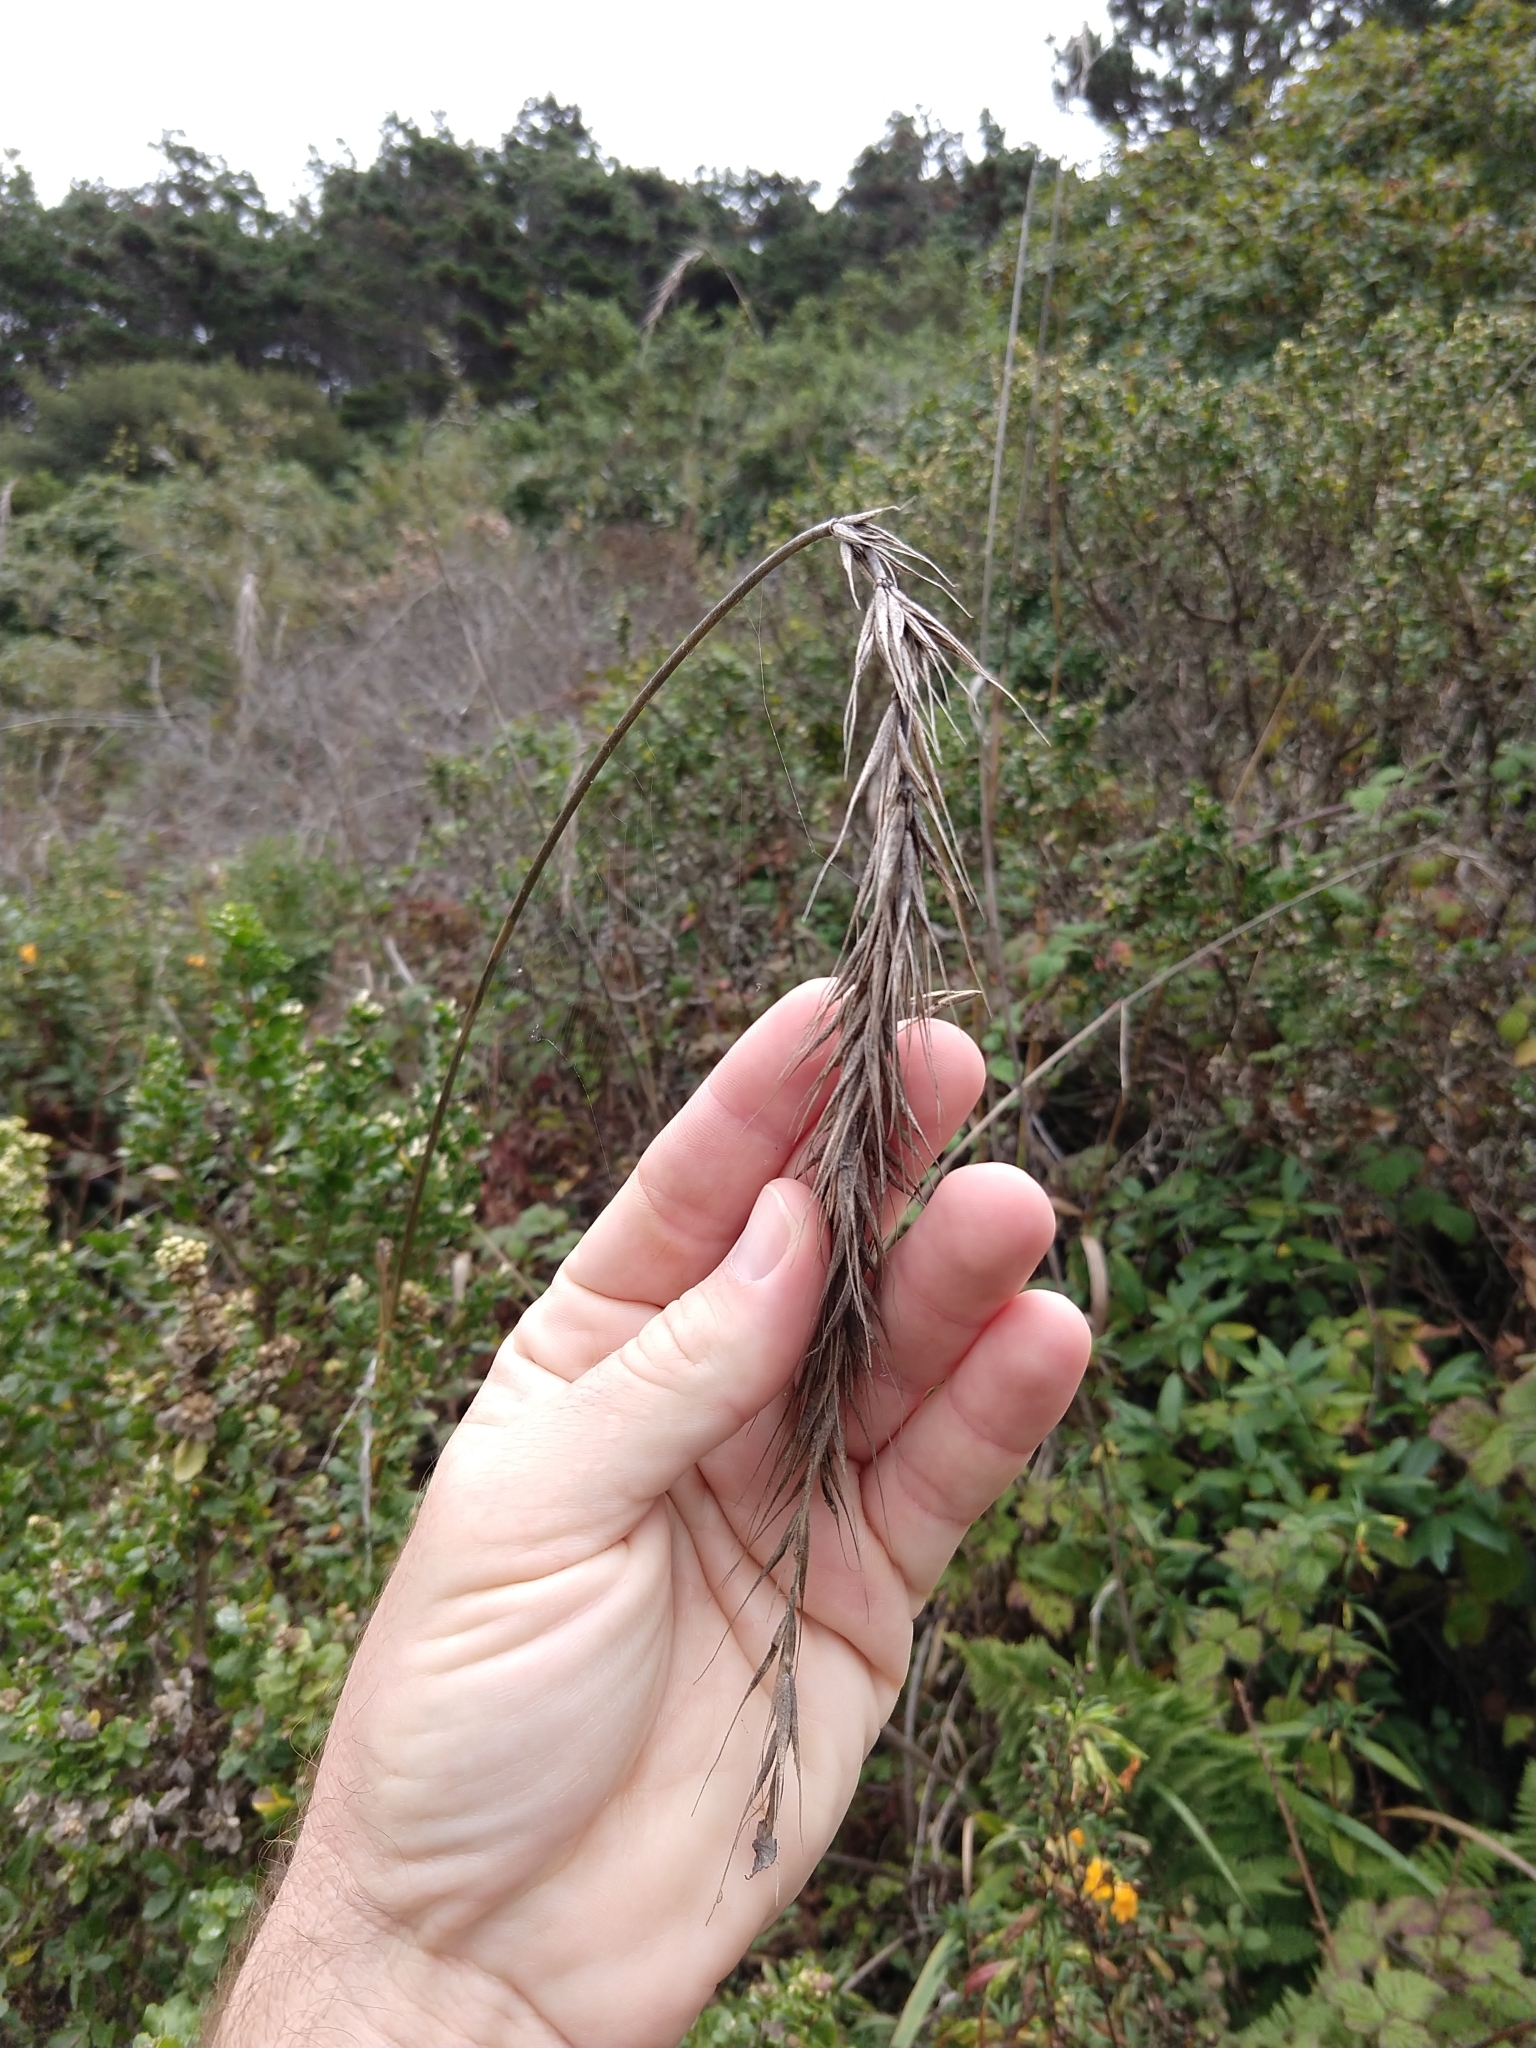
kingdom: Plantae
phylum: Tracheophyta
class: Liliopsida
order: Poales
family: Poaceae
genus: Elymus
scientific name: Elymus californicus
